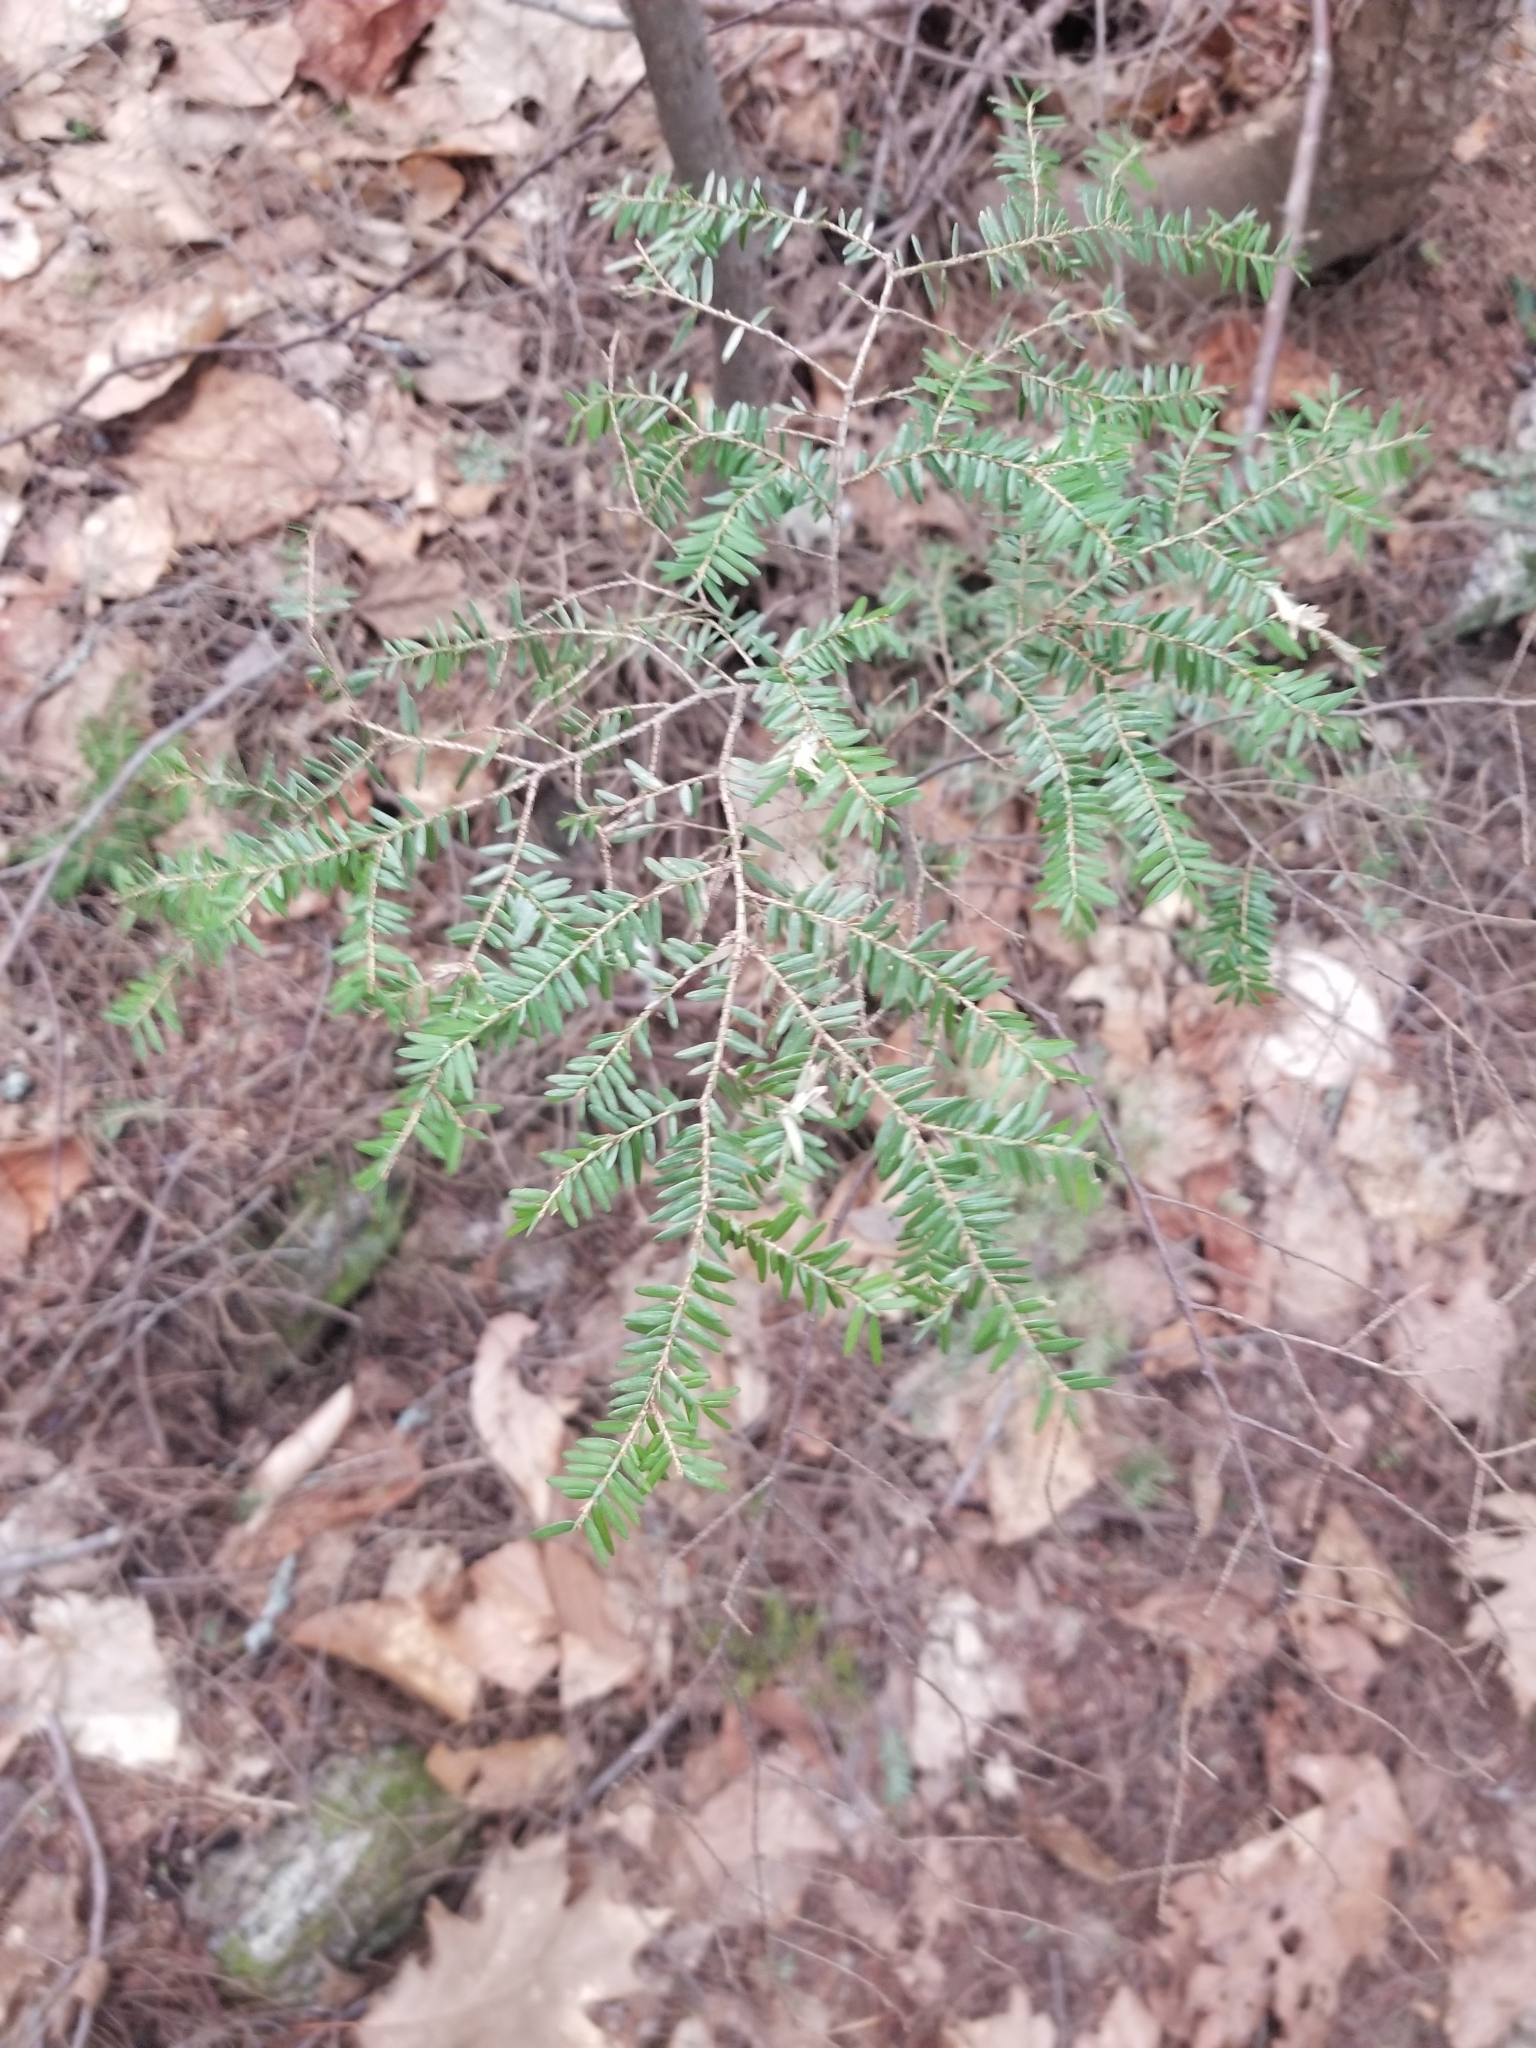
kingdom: Plantae
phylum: Tracheophyta
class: Pinopsida
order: Pinales
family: Pinaceae
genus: Tsuga
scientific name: Tsuga canadensis
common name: Eastern hemlock
